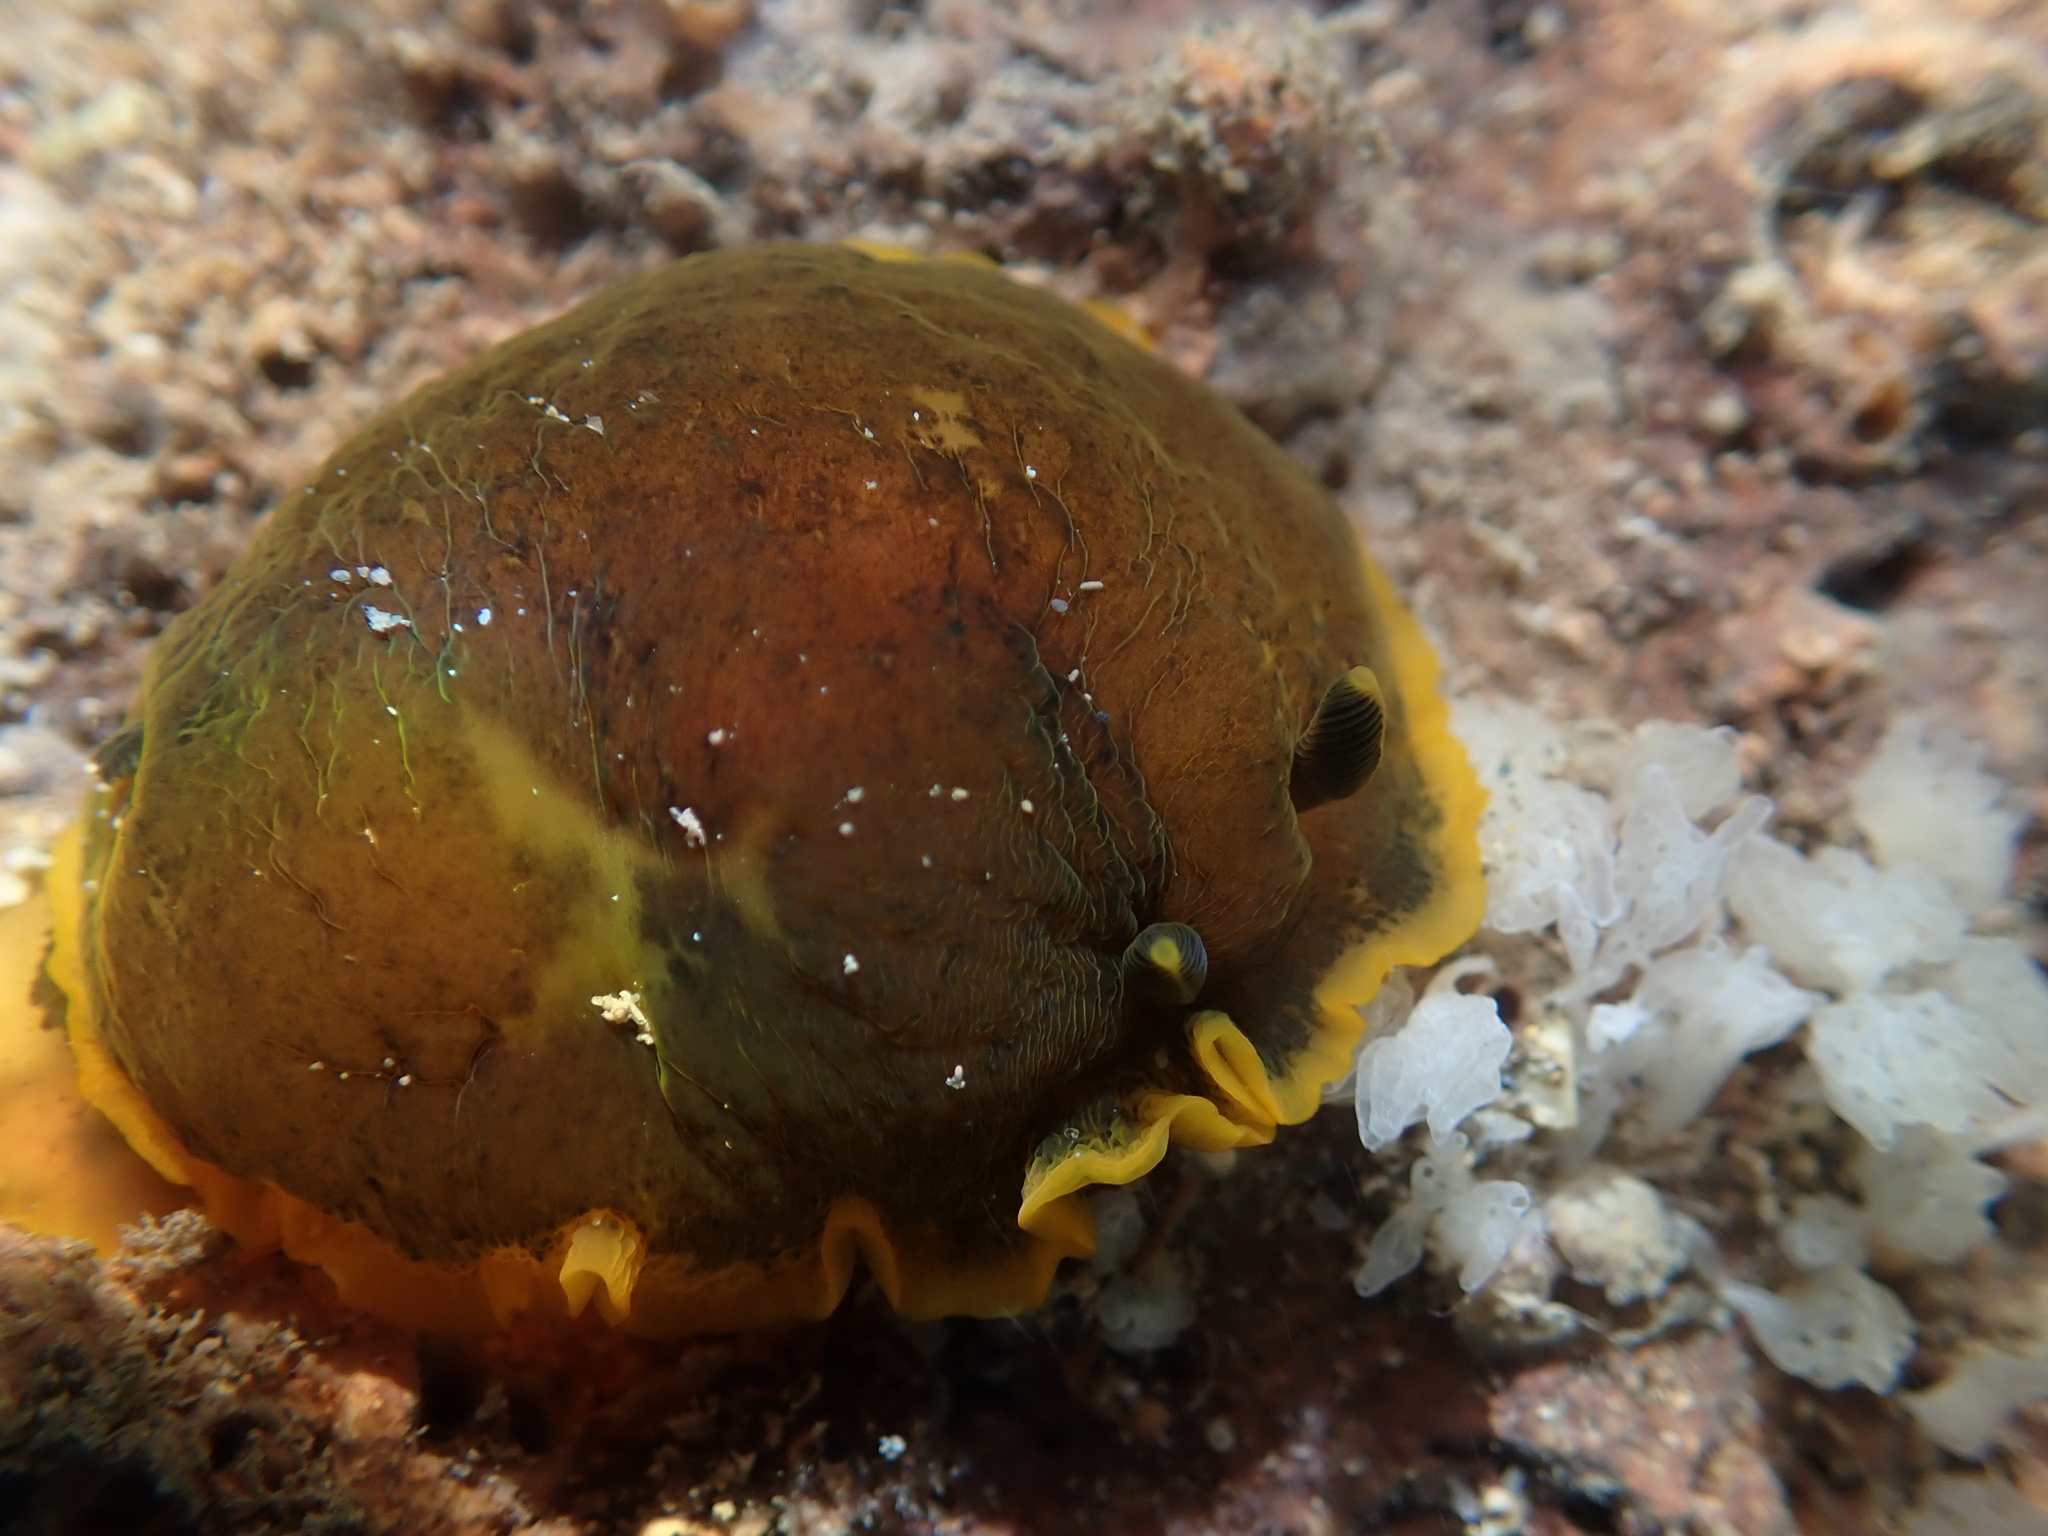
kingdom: Animalia
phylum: Mollusca
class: Gastropoda
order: Nudibranchia
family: Dendrodorididae
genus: Dendrodoris
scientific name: Dendrodoris limbata
